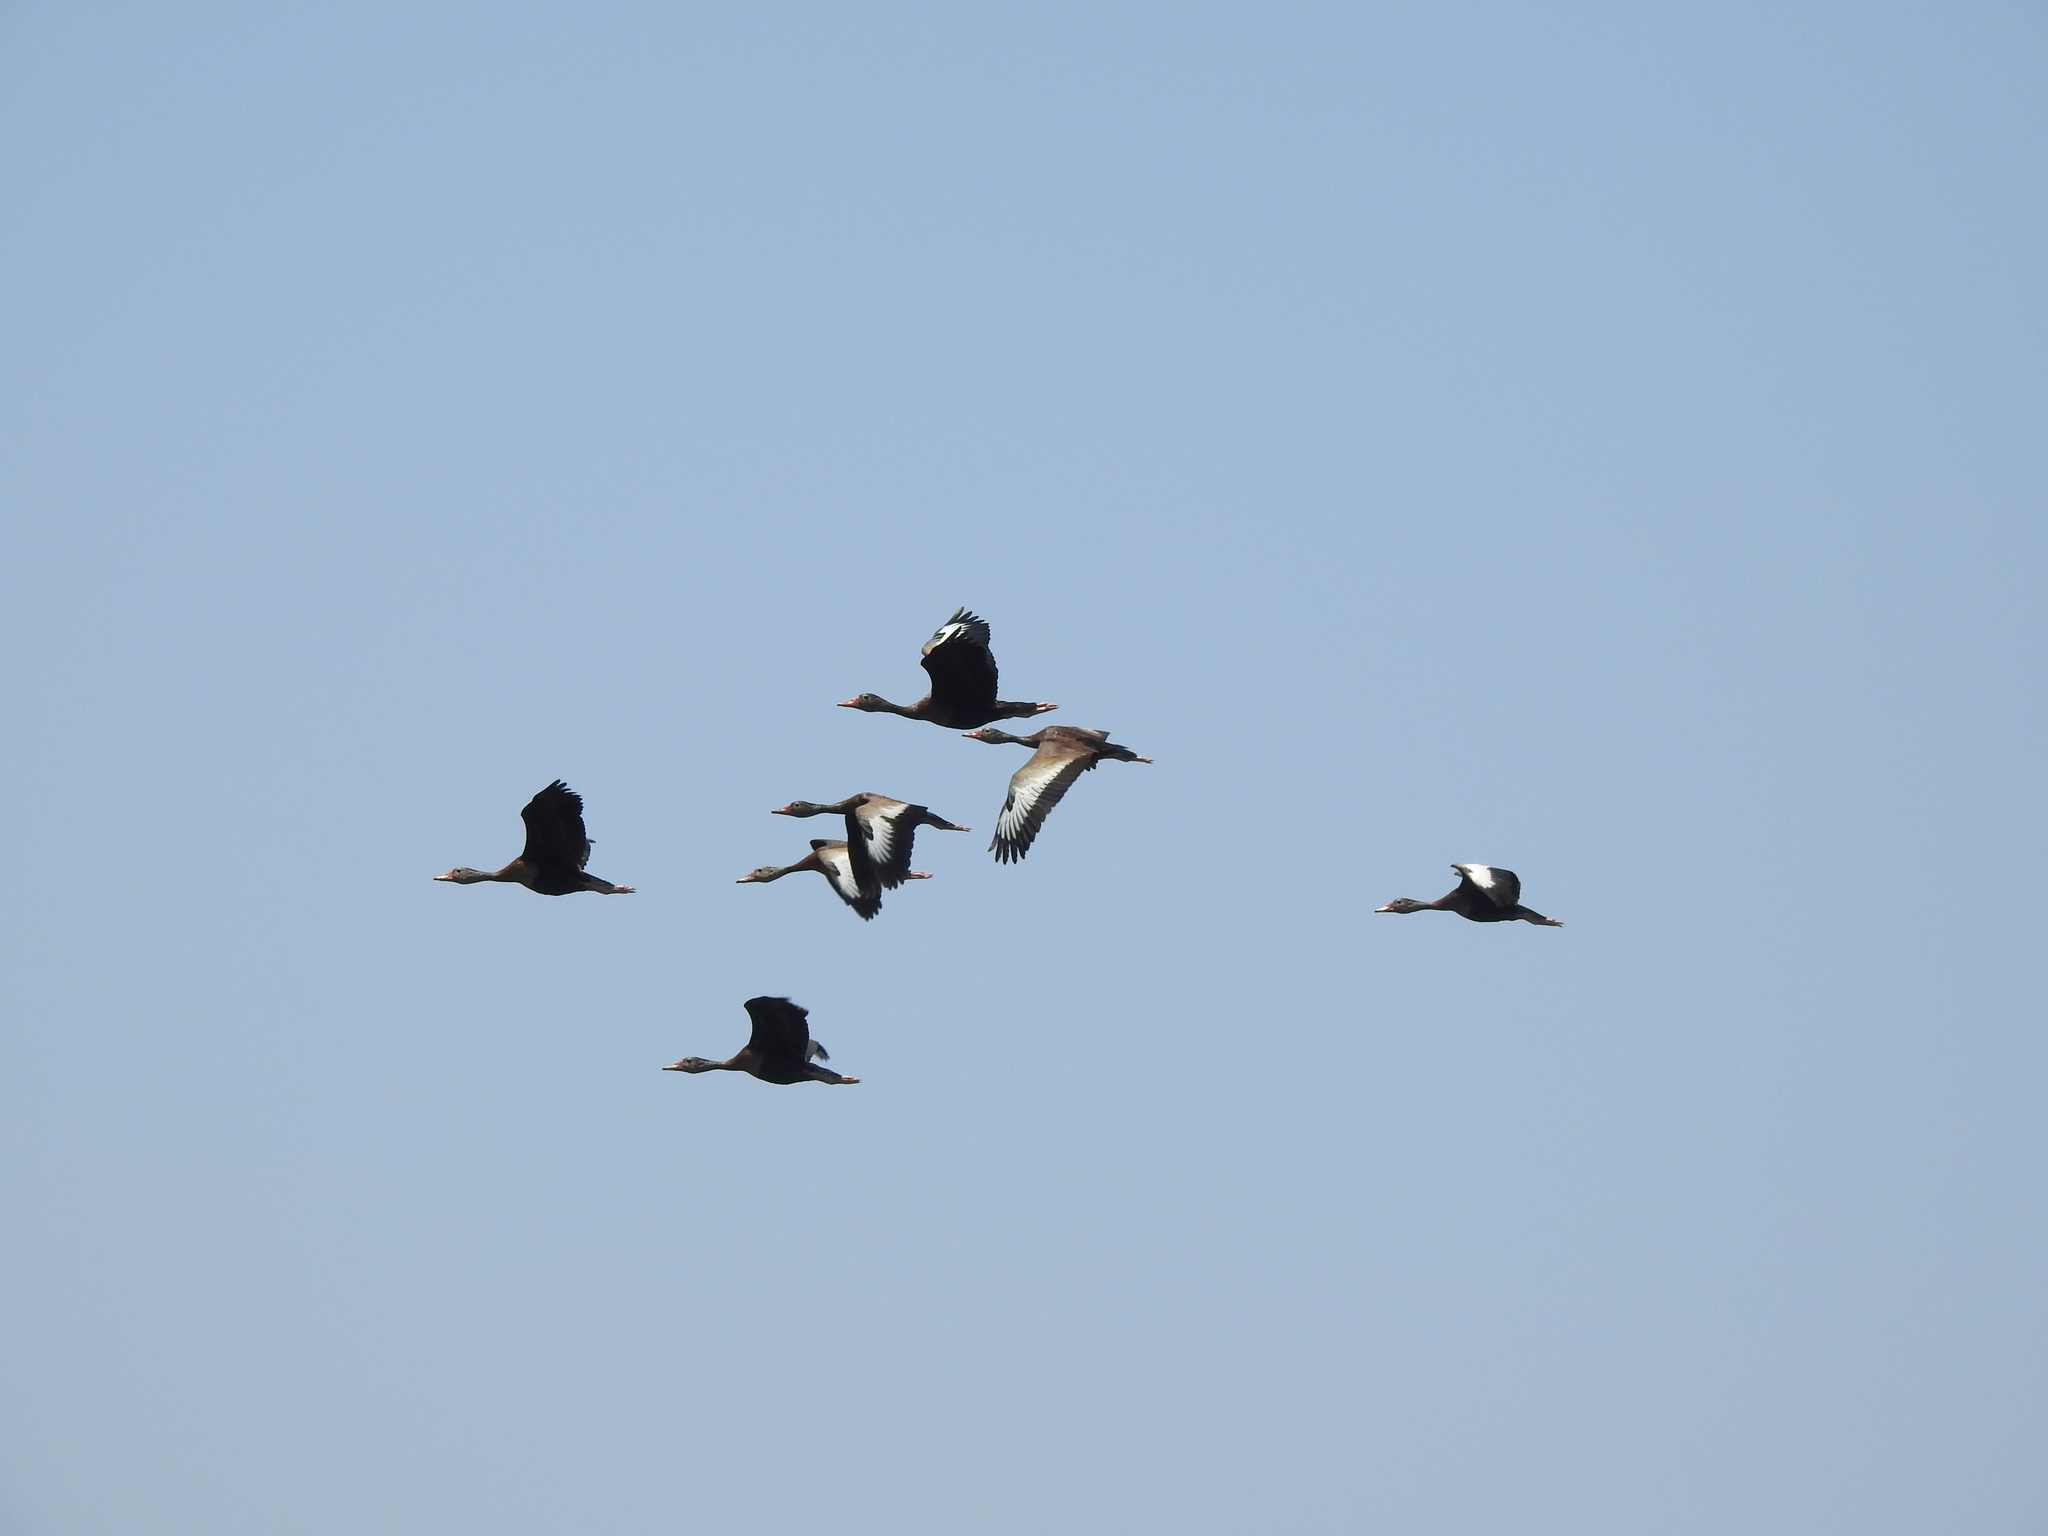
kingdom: Animalia
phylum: Chordata
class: Aves
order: Anseriformes
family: Anatidae
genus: Dendrocygna
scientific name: Dendrocygna autumnalis
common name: Black-bellied whistling duck
